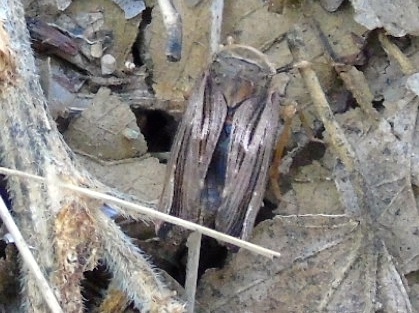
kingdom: Animalia
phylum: Arthropoda
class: Insecta
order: Hemiptera
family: Fulgoridae
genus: Cyrpoptus
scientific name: Cyrpoptus
